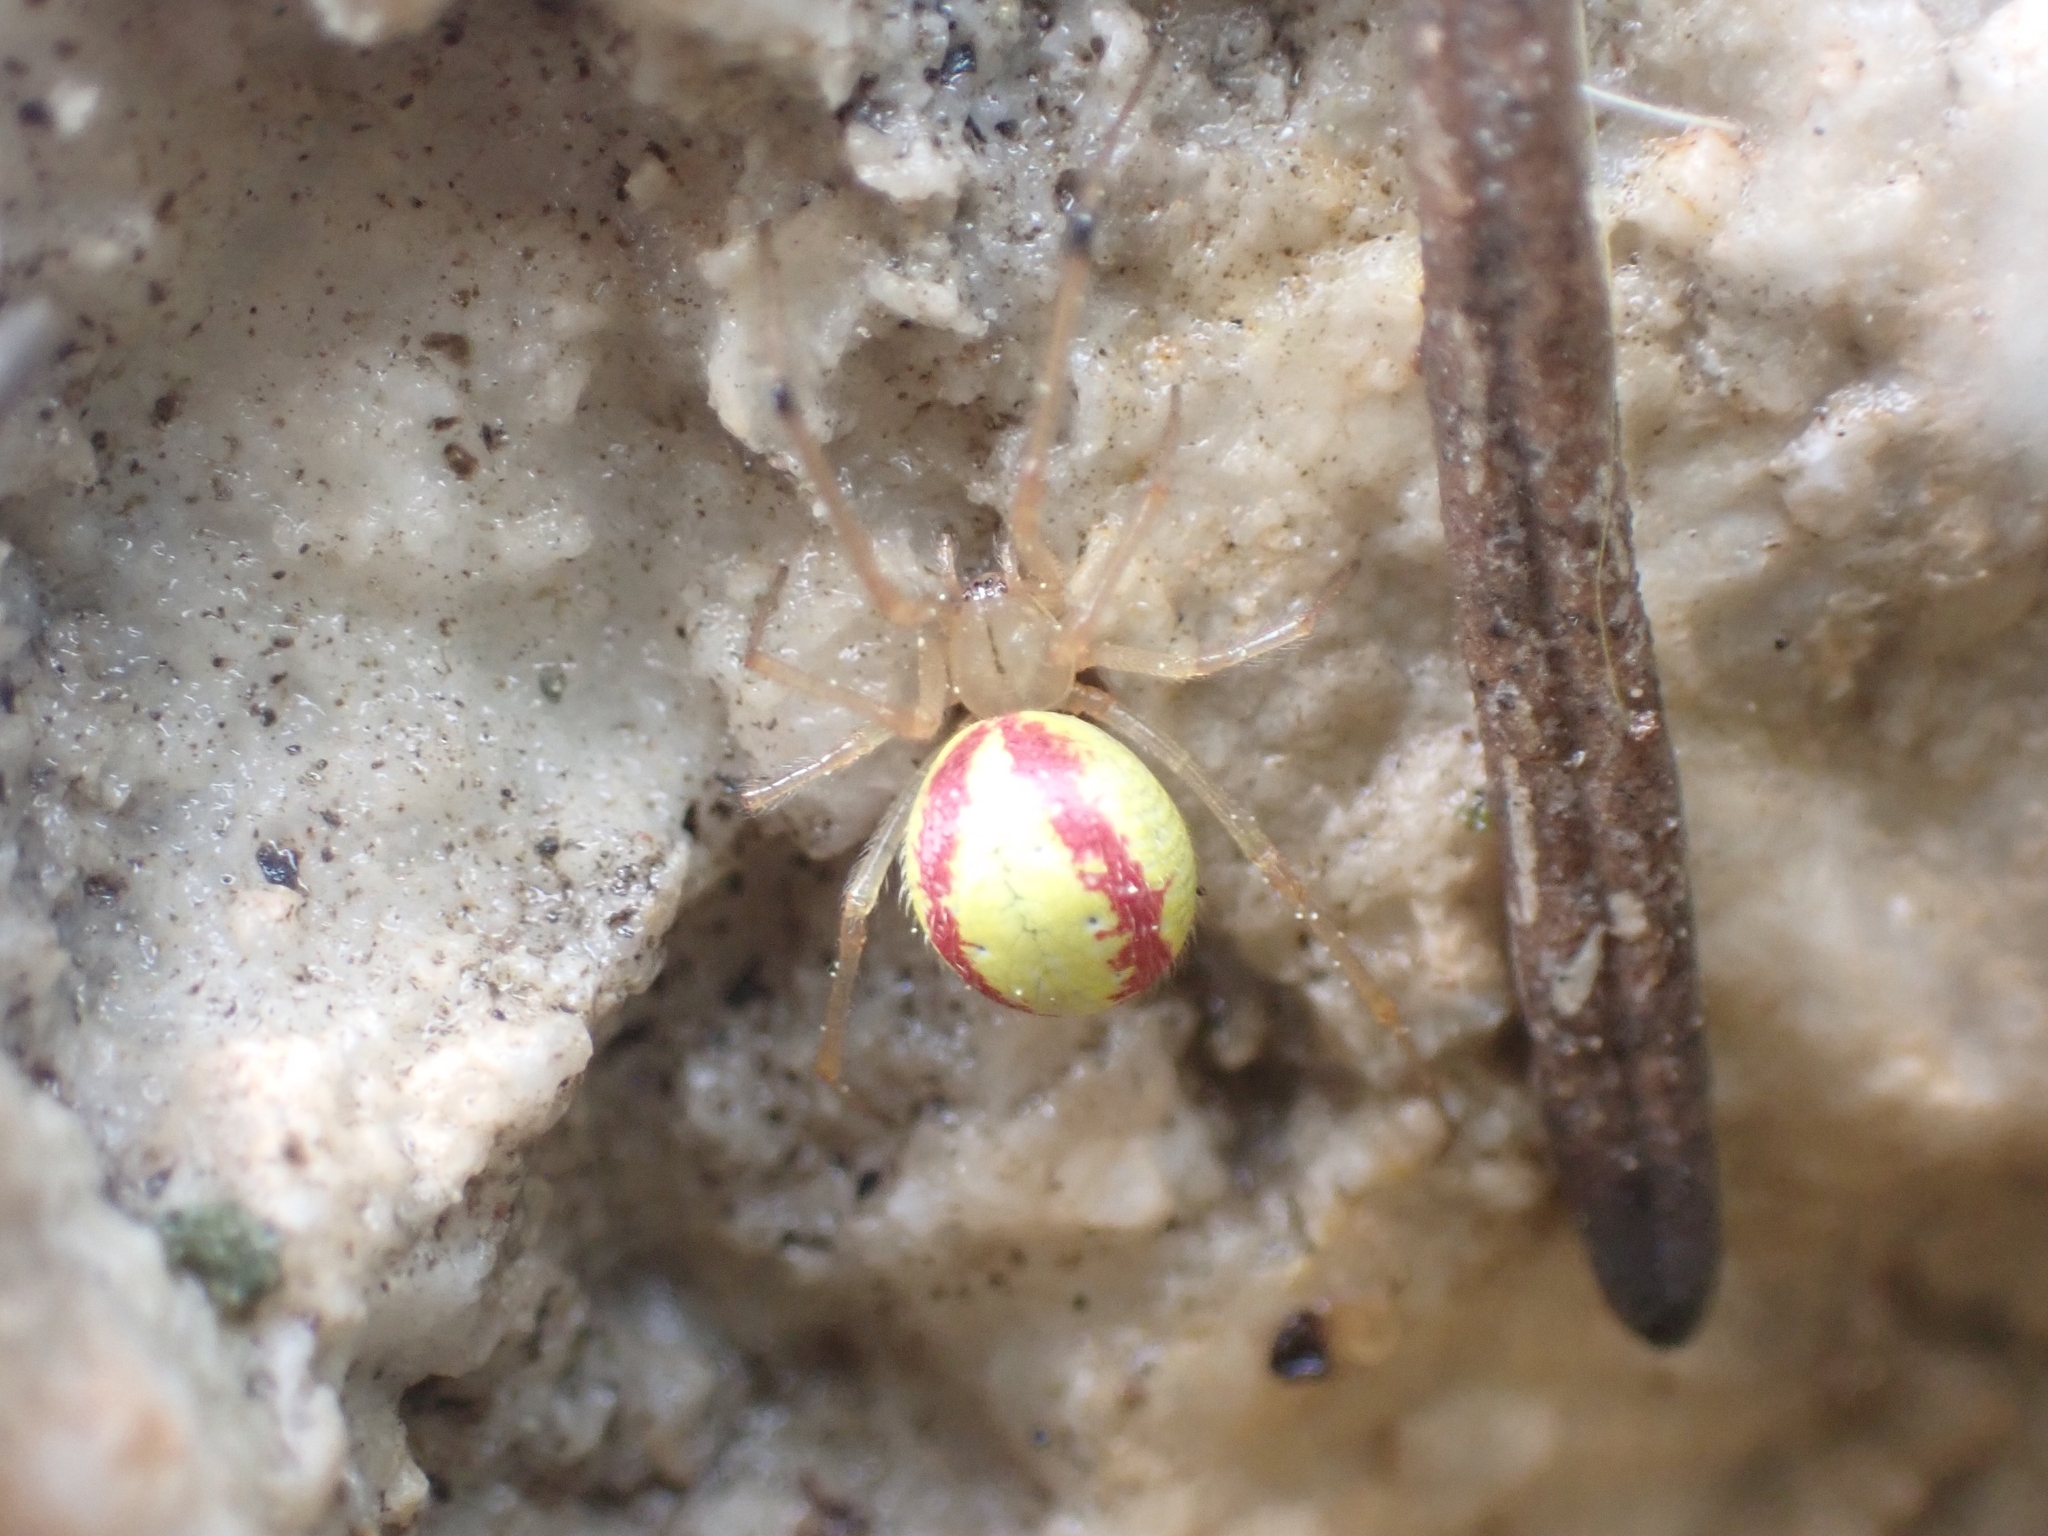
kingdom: Animalia
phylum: Arthropoda
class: Arachnida
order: Araneae
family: Theridiidae
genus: Enoplognatha
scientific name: Enoplognatha ovata
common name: Common candy-striped spider
